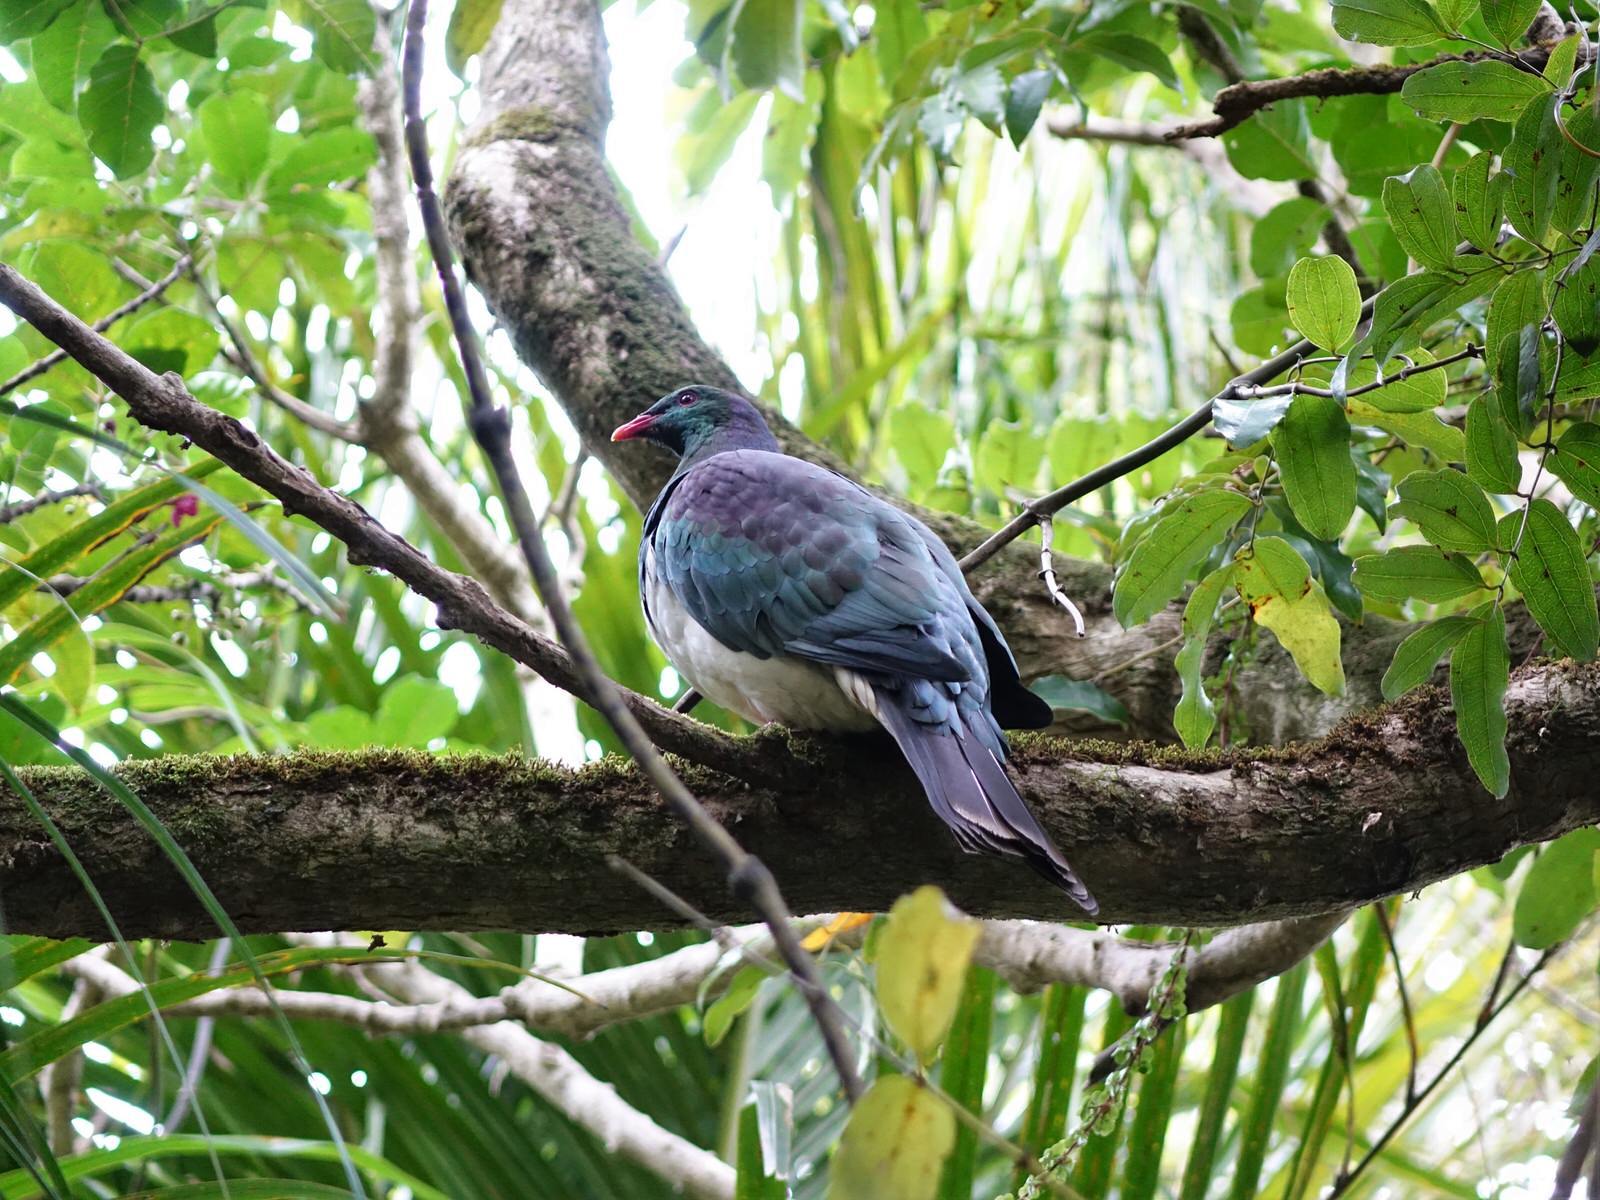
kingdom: Animalia
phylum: Chordata
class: Aves
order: Columbiformes
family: Columbidae
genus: Hemiphaga
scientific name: Hemiphaga novaeseelandiae
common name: New zealand pigeon
